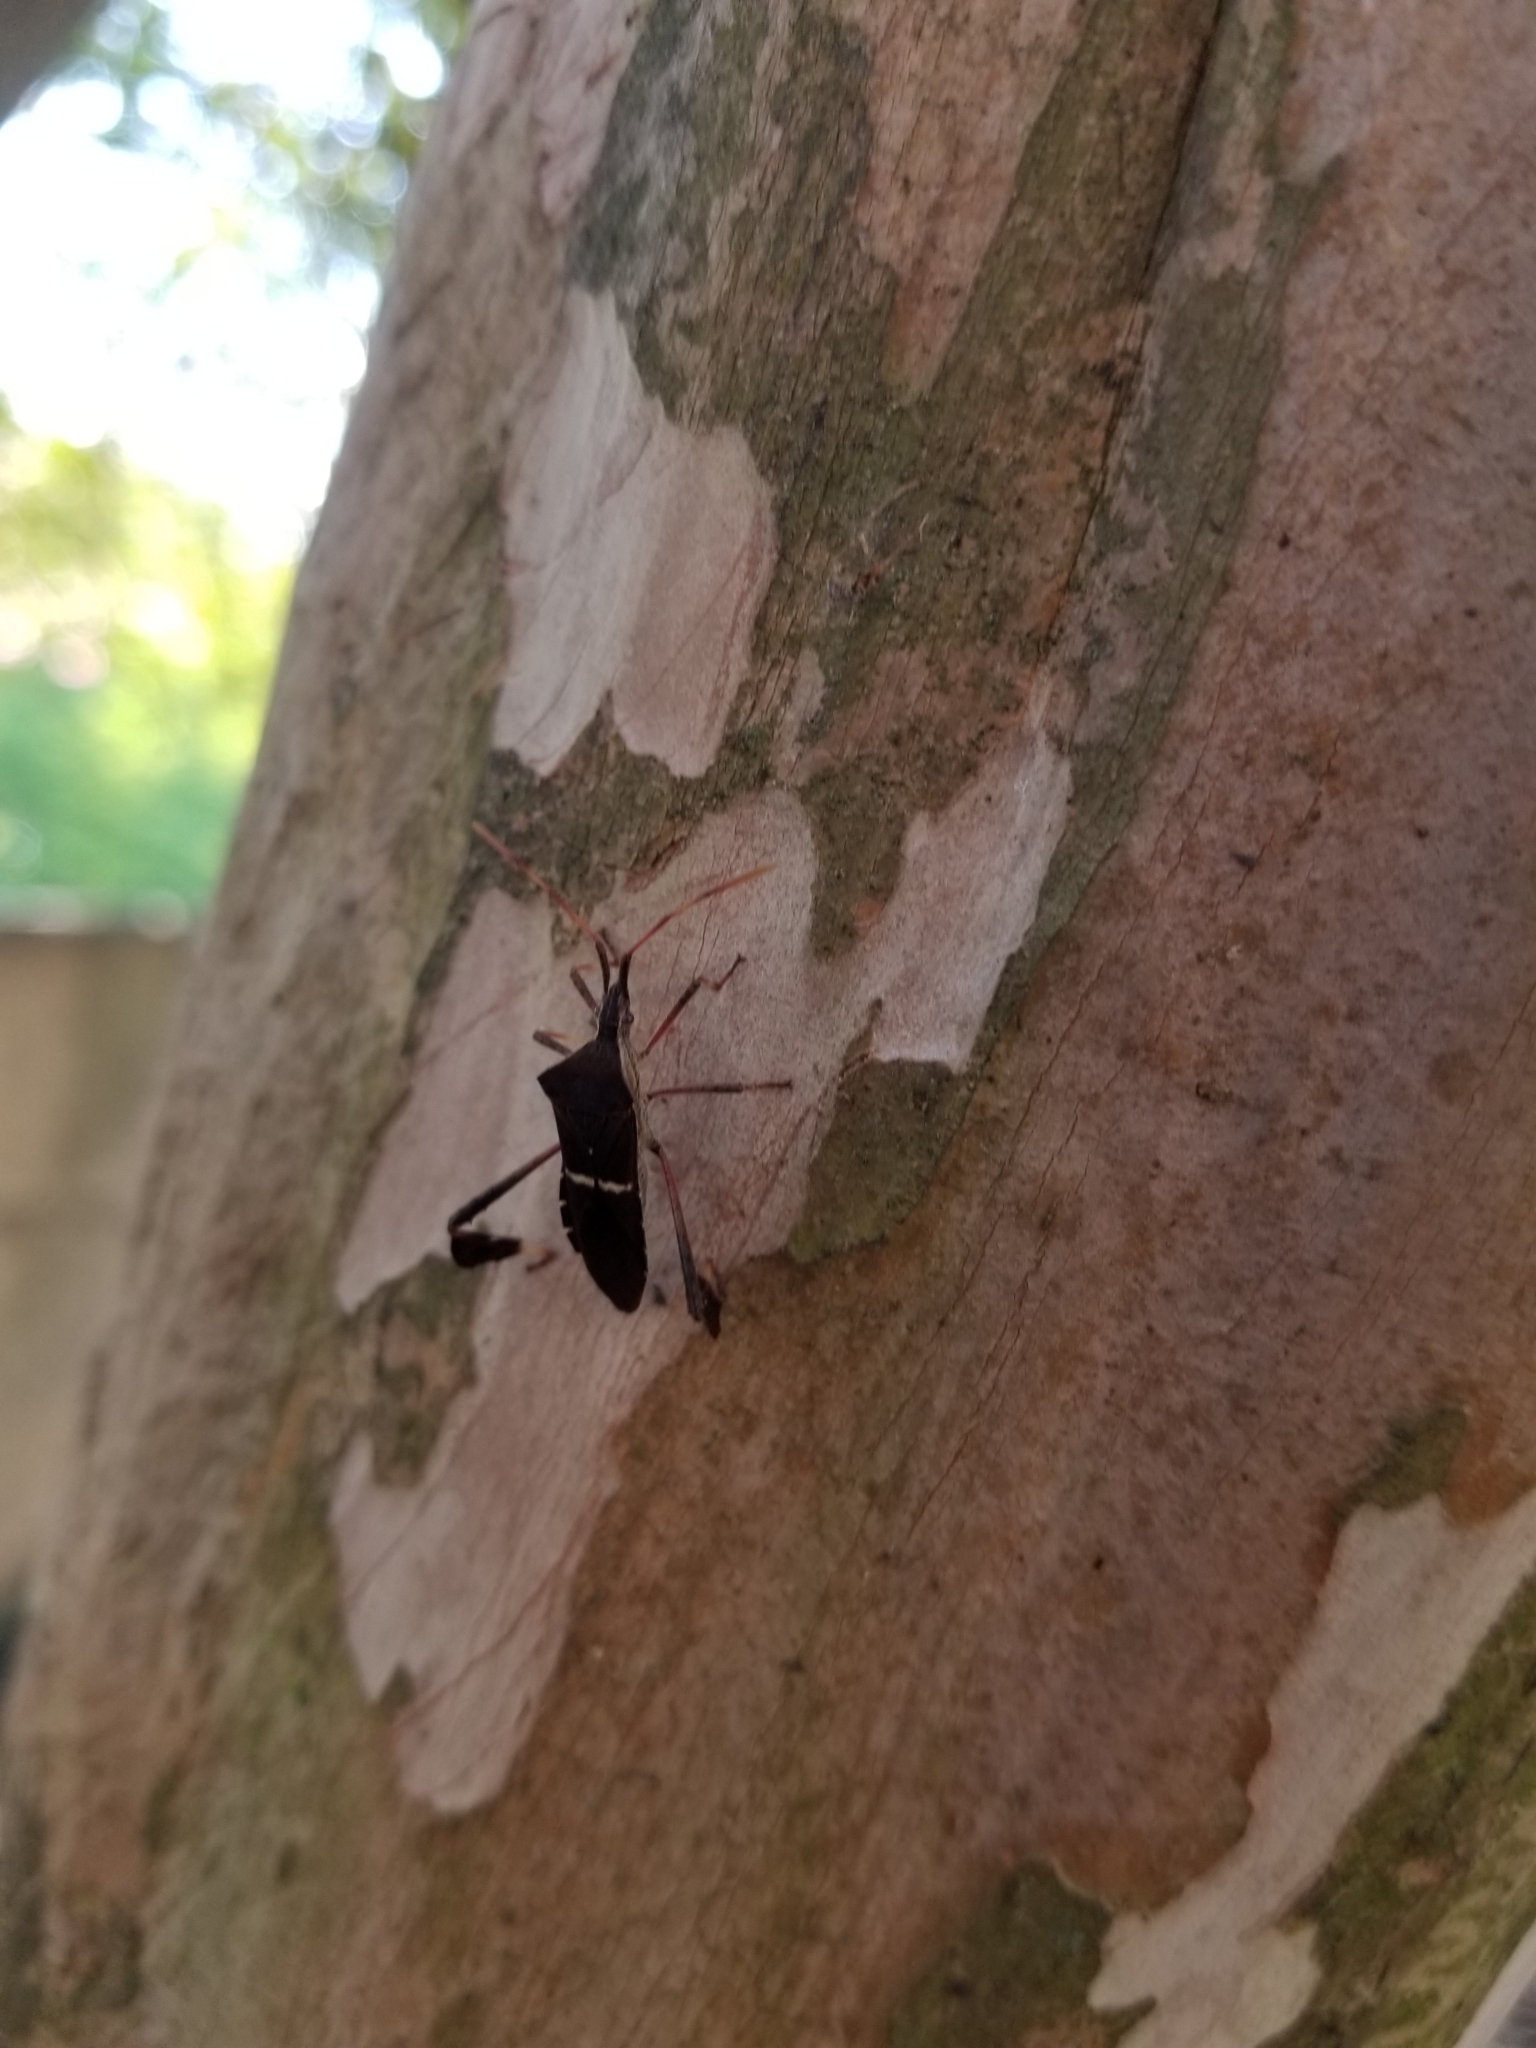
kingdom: Animalia
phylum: Arthropoda
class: Insecta
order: Hemiptera
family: Coreidae
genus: Leptoglossus
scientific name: Leptoglossus phyllopus
